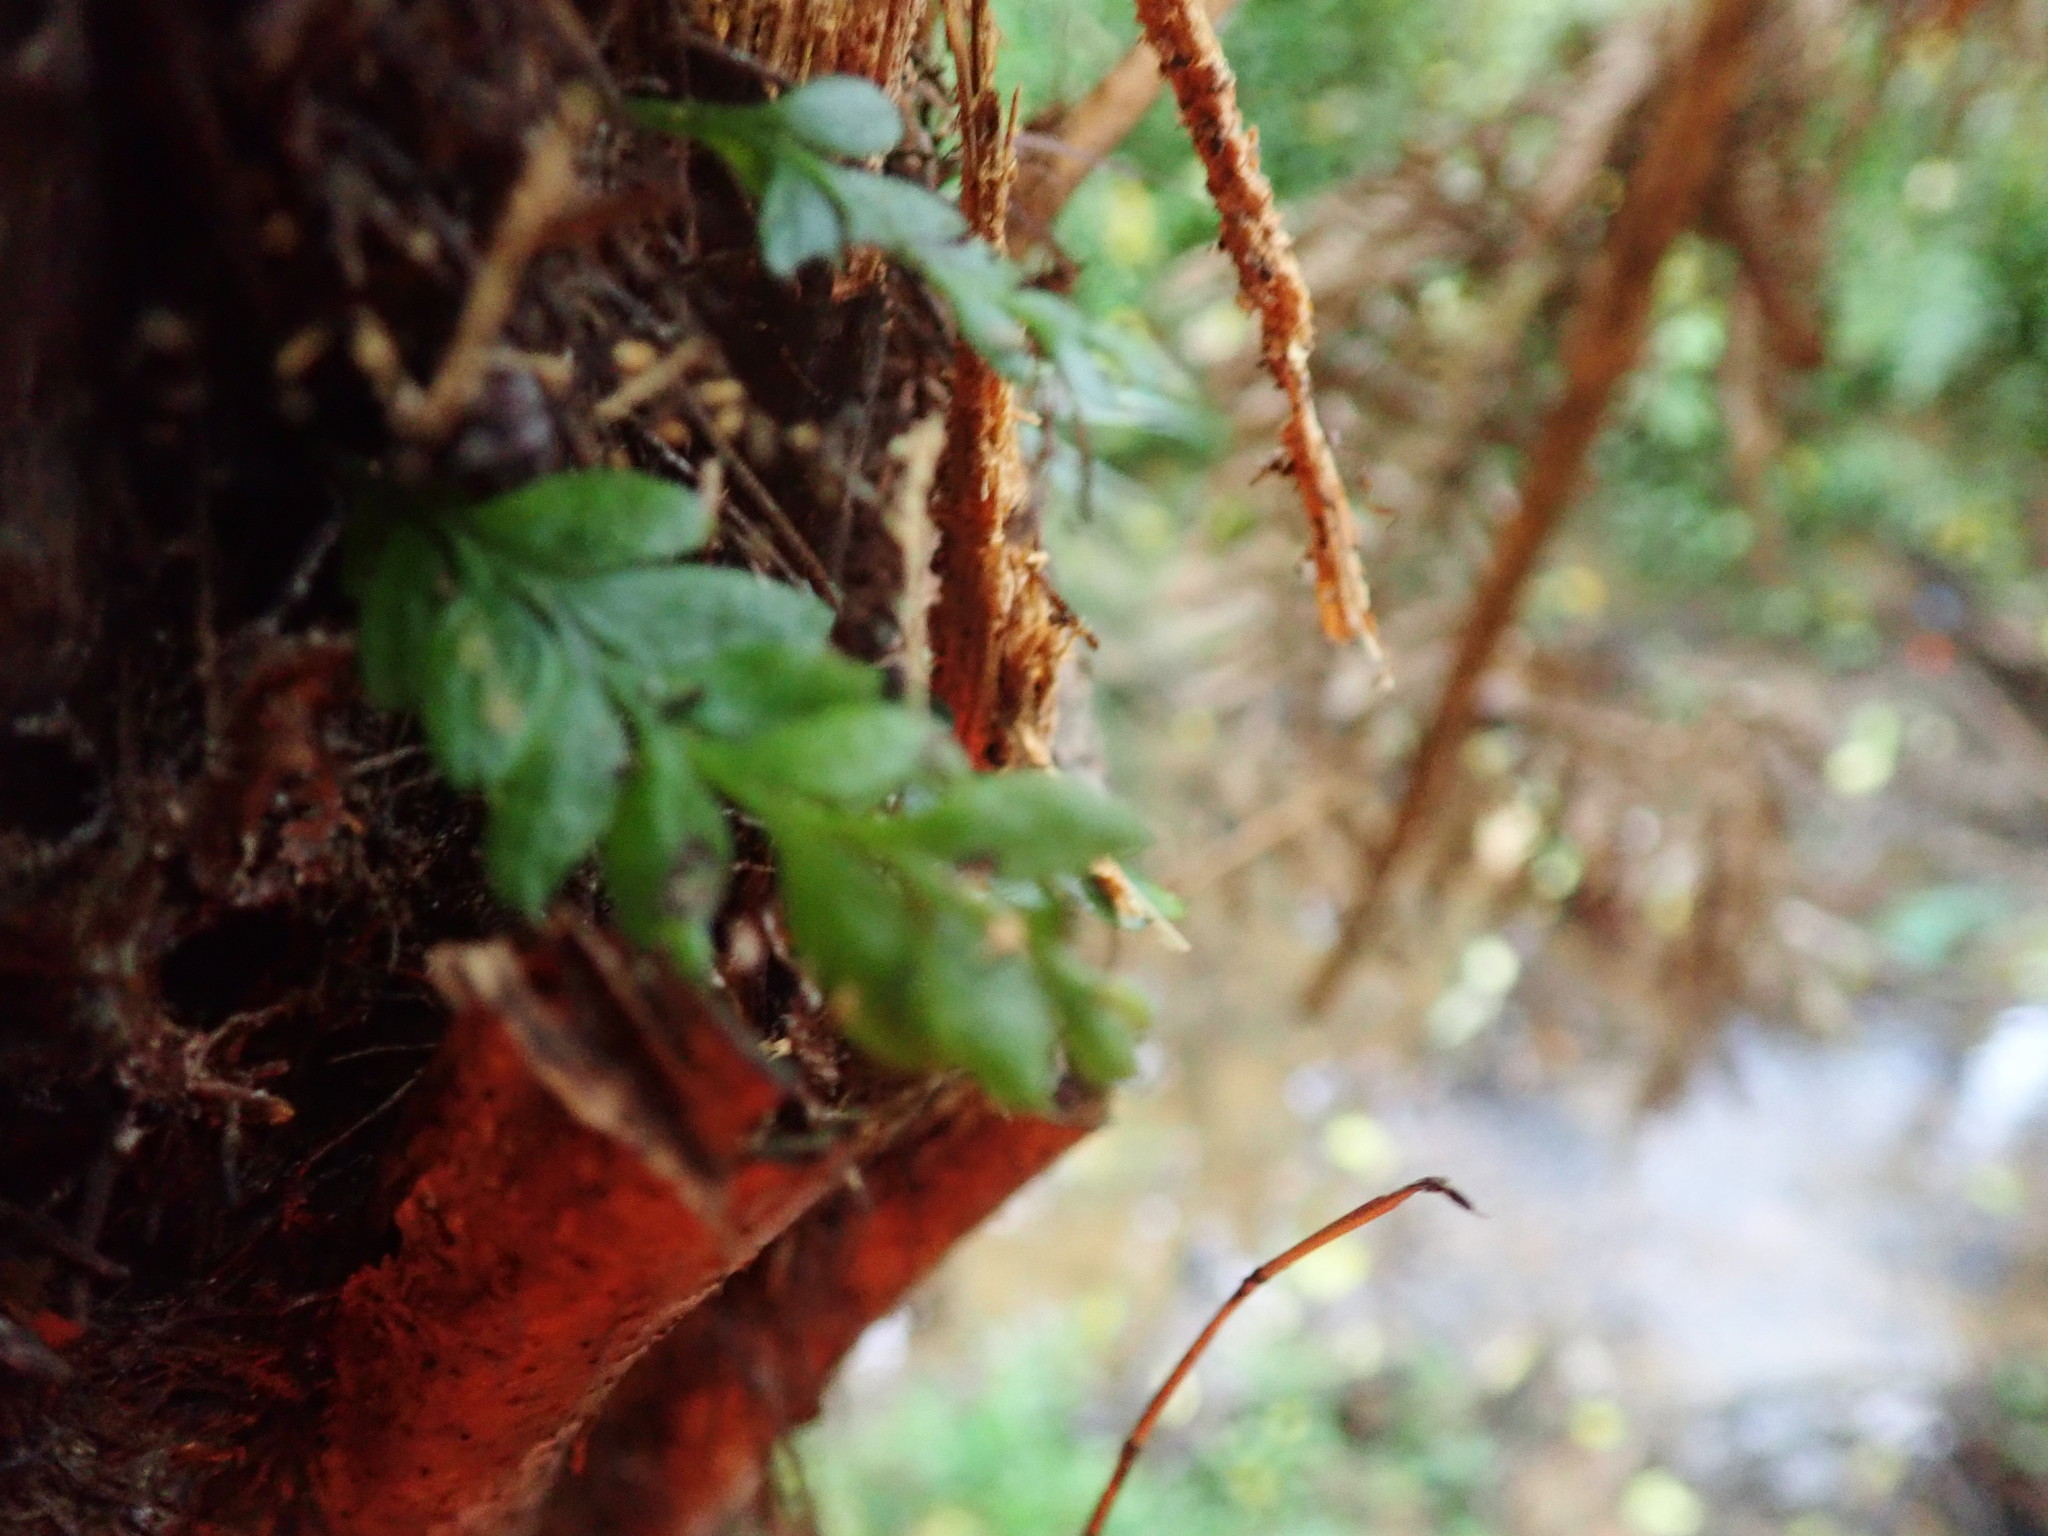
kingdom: Plantae
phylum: Tracheophyta
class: Polypodiopsida
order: Psilotales
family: Psilotaceae
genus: Tmesipteris
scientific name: Tmesipteris lanceolata
